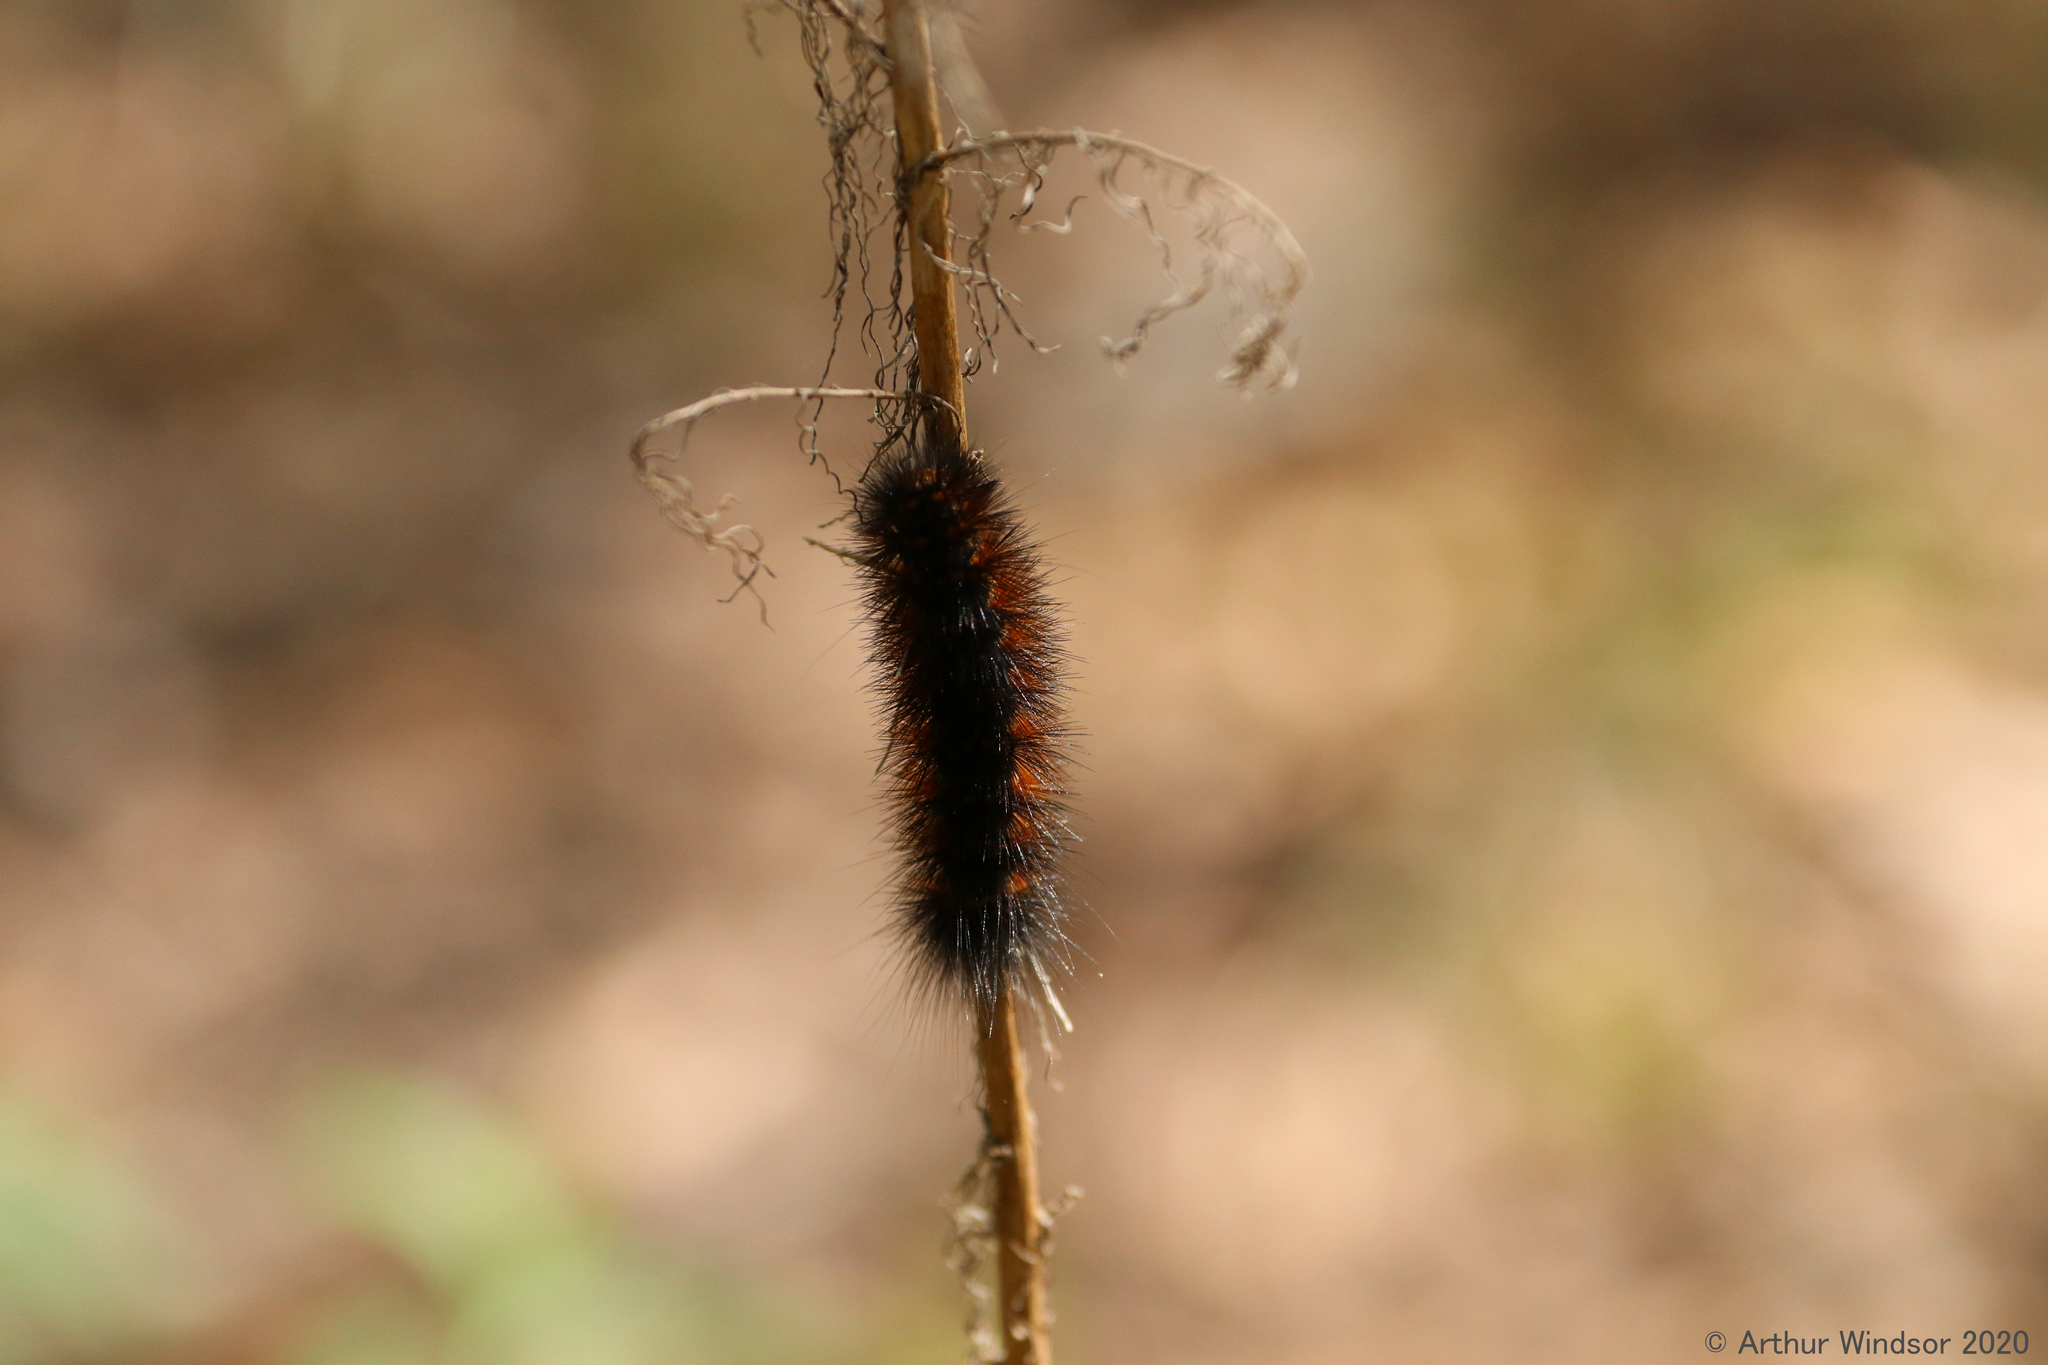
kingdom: Animalia
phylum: Arthropoda
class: Insecta
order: Lepidoptera
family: Erebidae
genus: Estigmene
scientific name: Estigmene acrea
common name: Salt marsh moth
